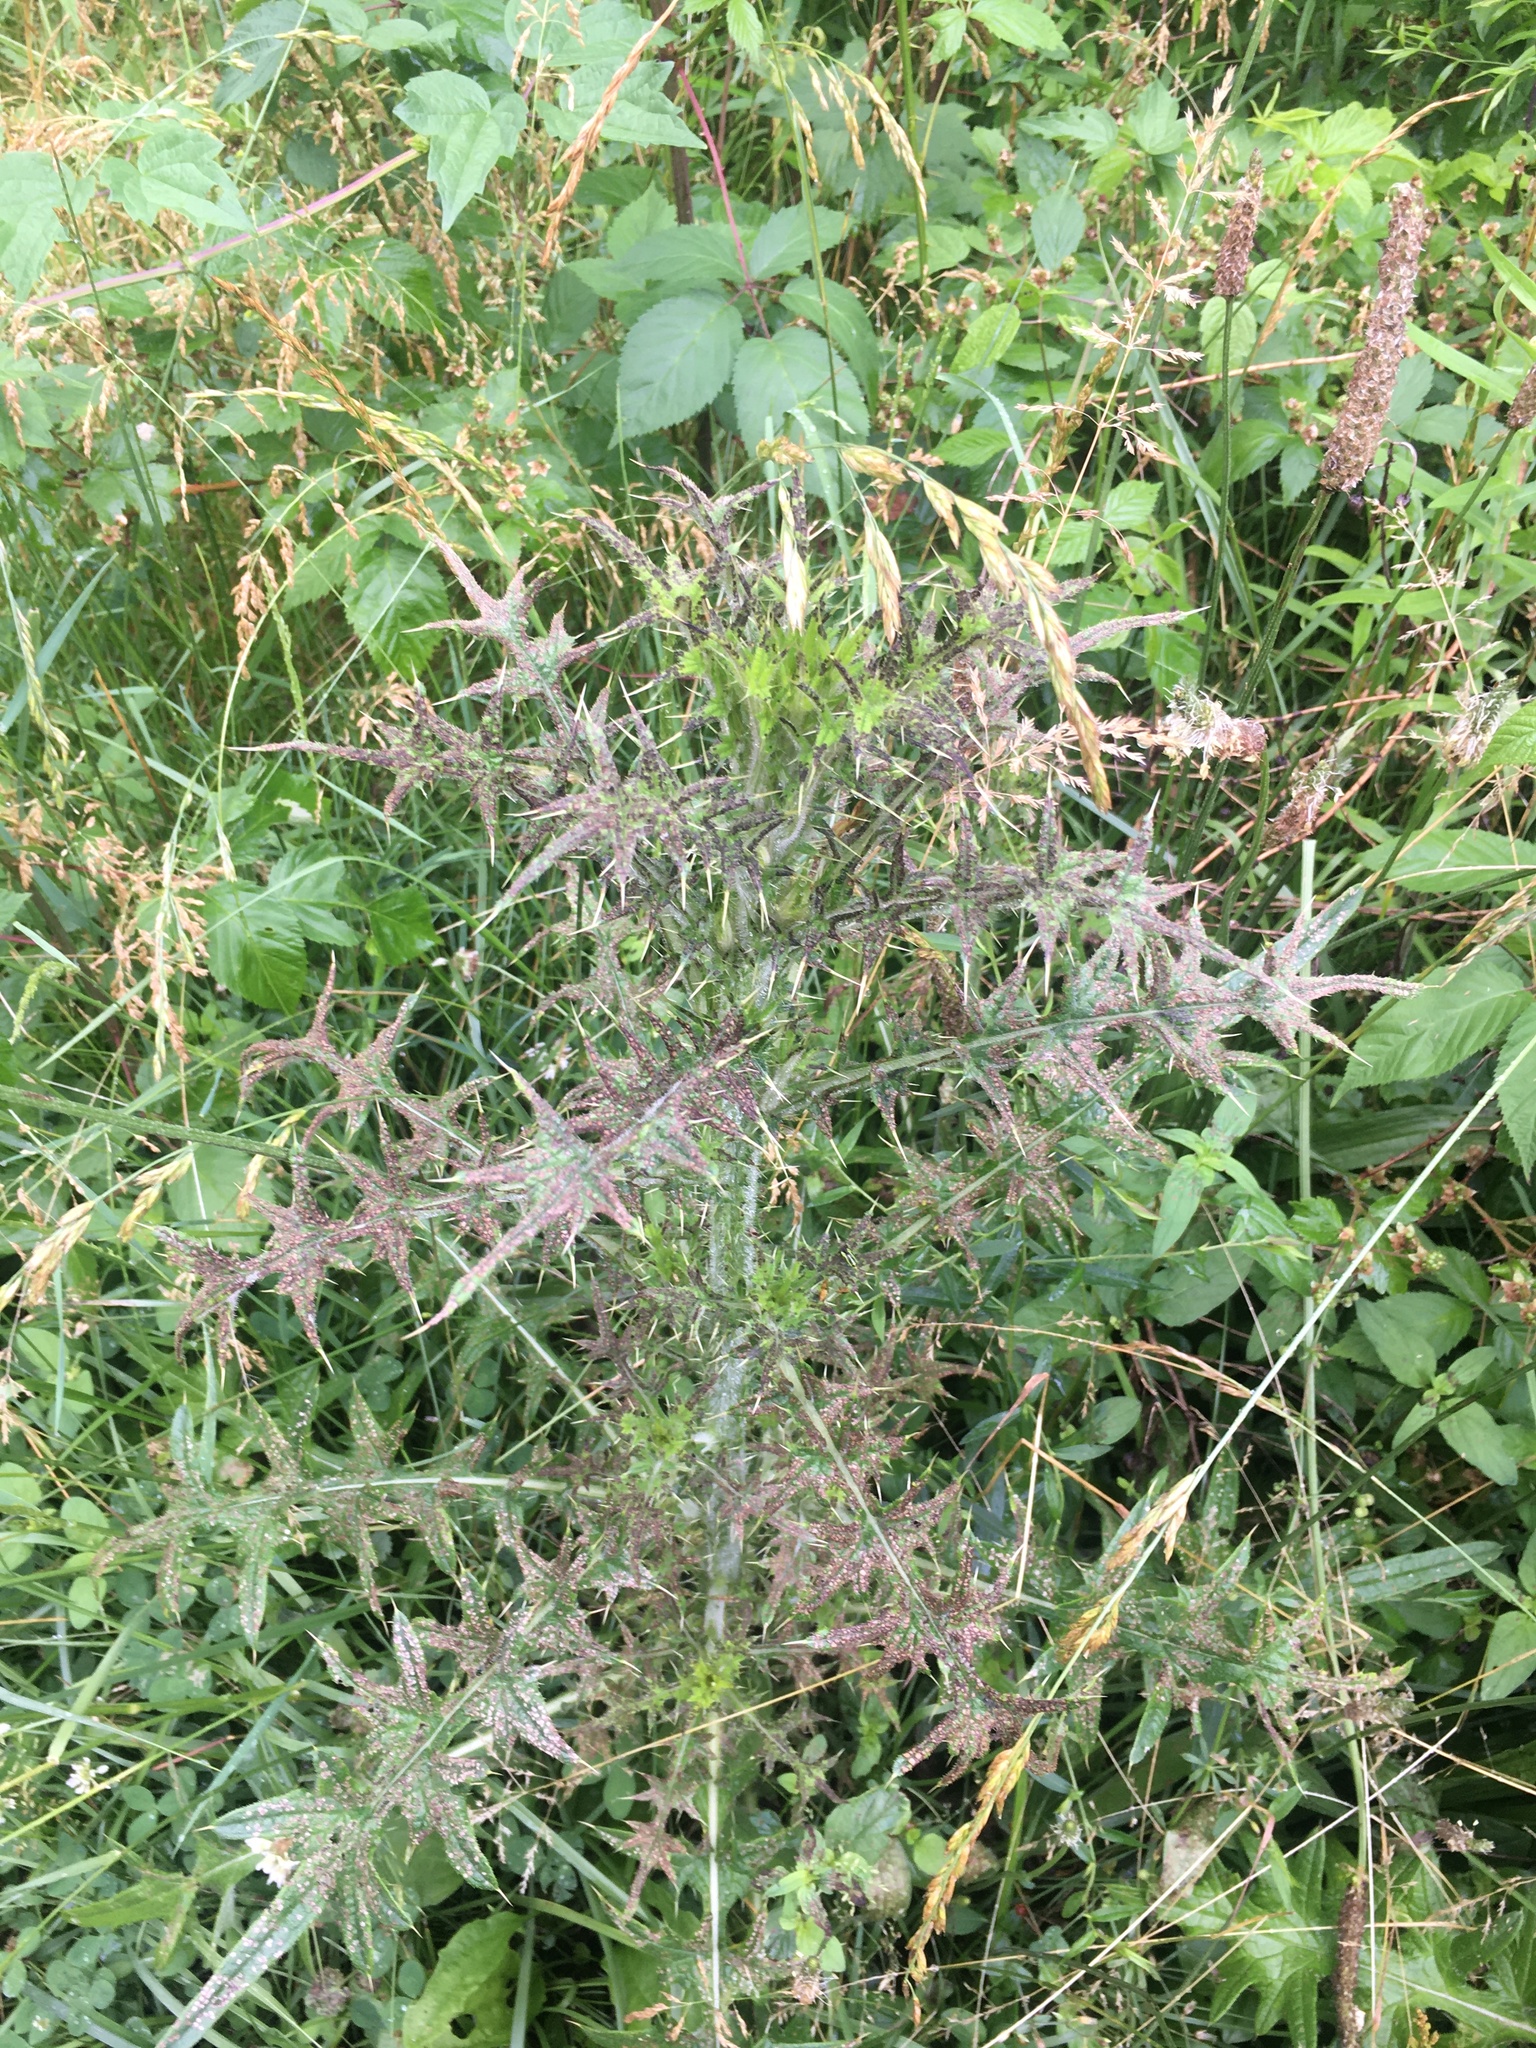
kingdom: Plantae
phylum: Tracheophyta
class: Magnoliopsida
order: Asterales
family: Asteraceae
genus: Cirsium
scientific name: Cirsium vulgare
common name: Bull thistle
